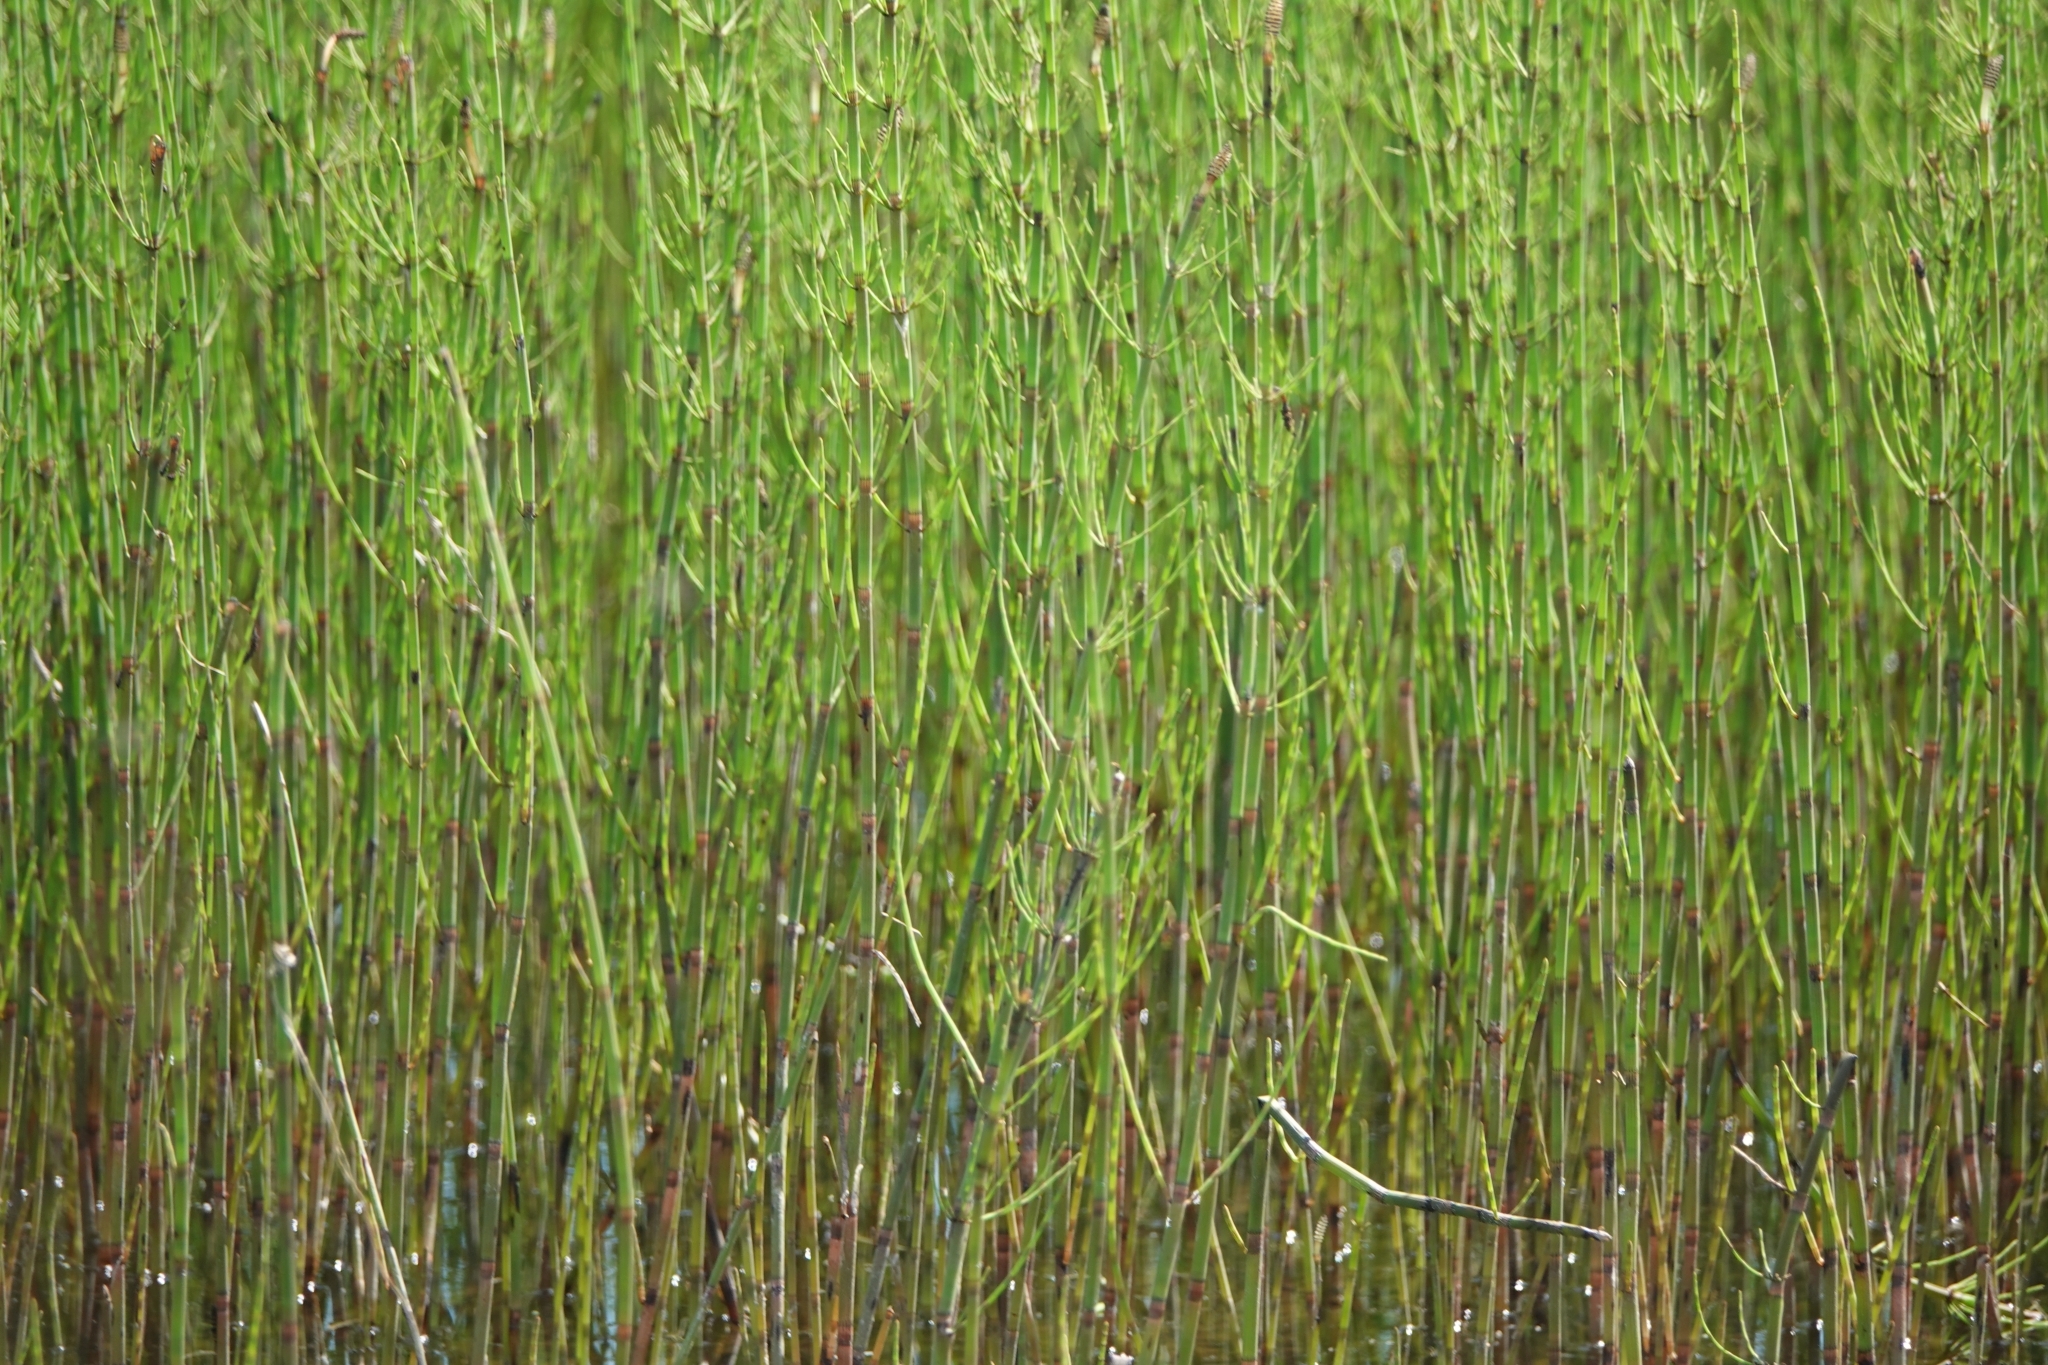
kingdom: Plantae
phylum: Tracheophyta
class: Polypodiopsida
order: Equisetales
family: Equisetaceae
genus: Equisetum
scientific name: Equisetum fluviatile
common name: Water horsetail
